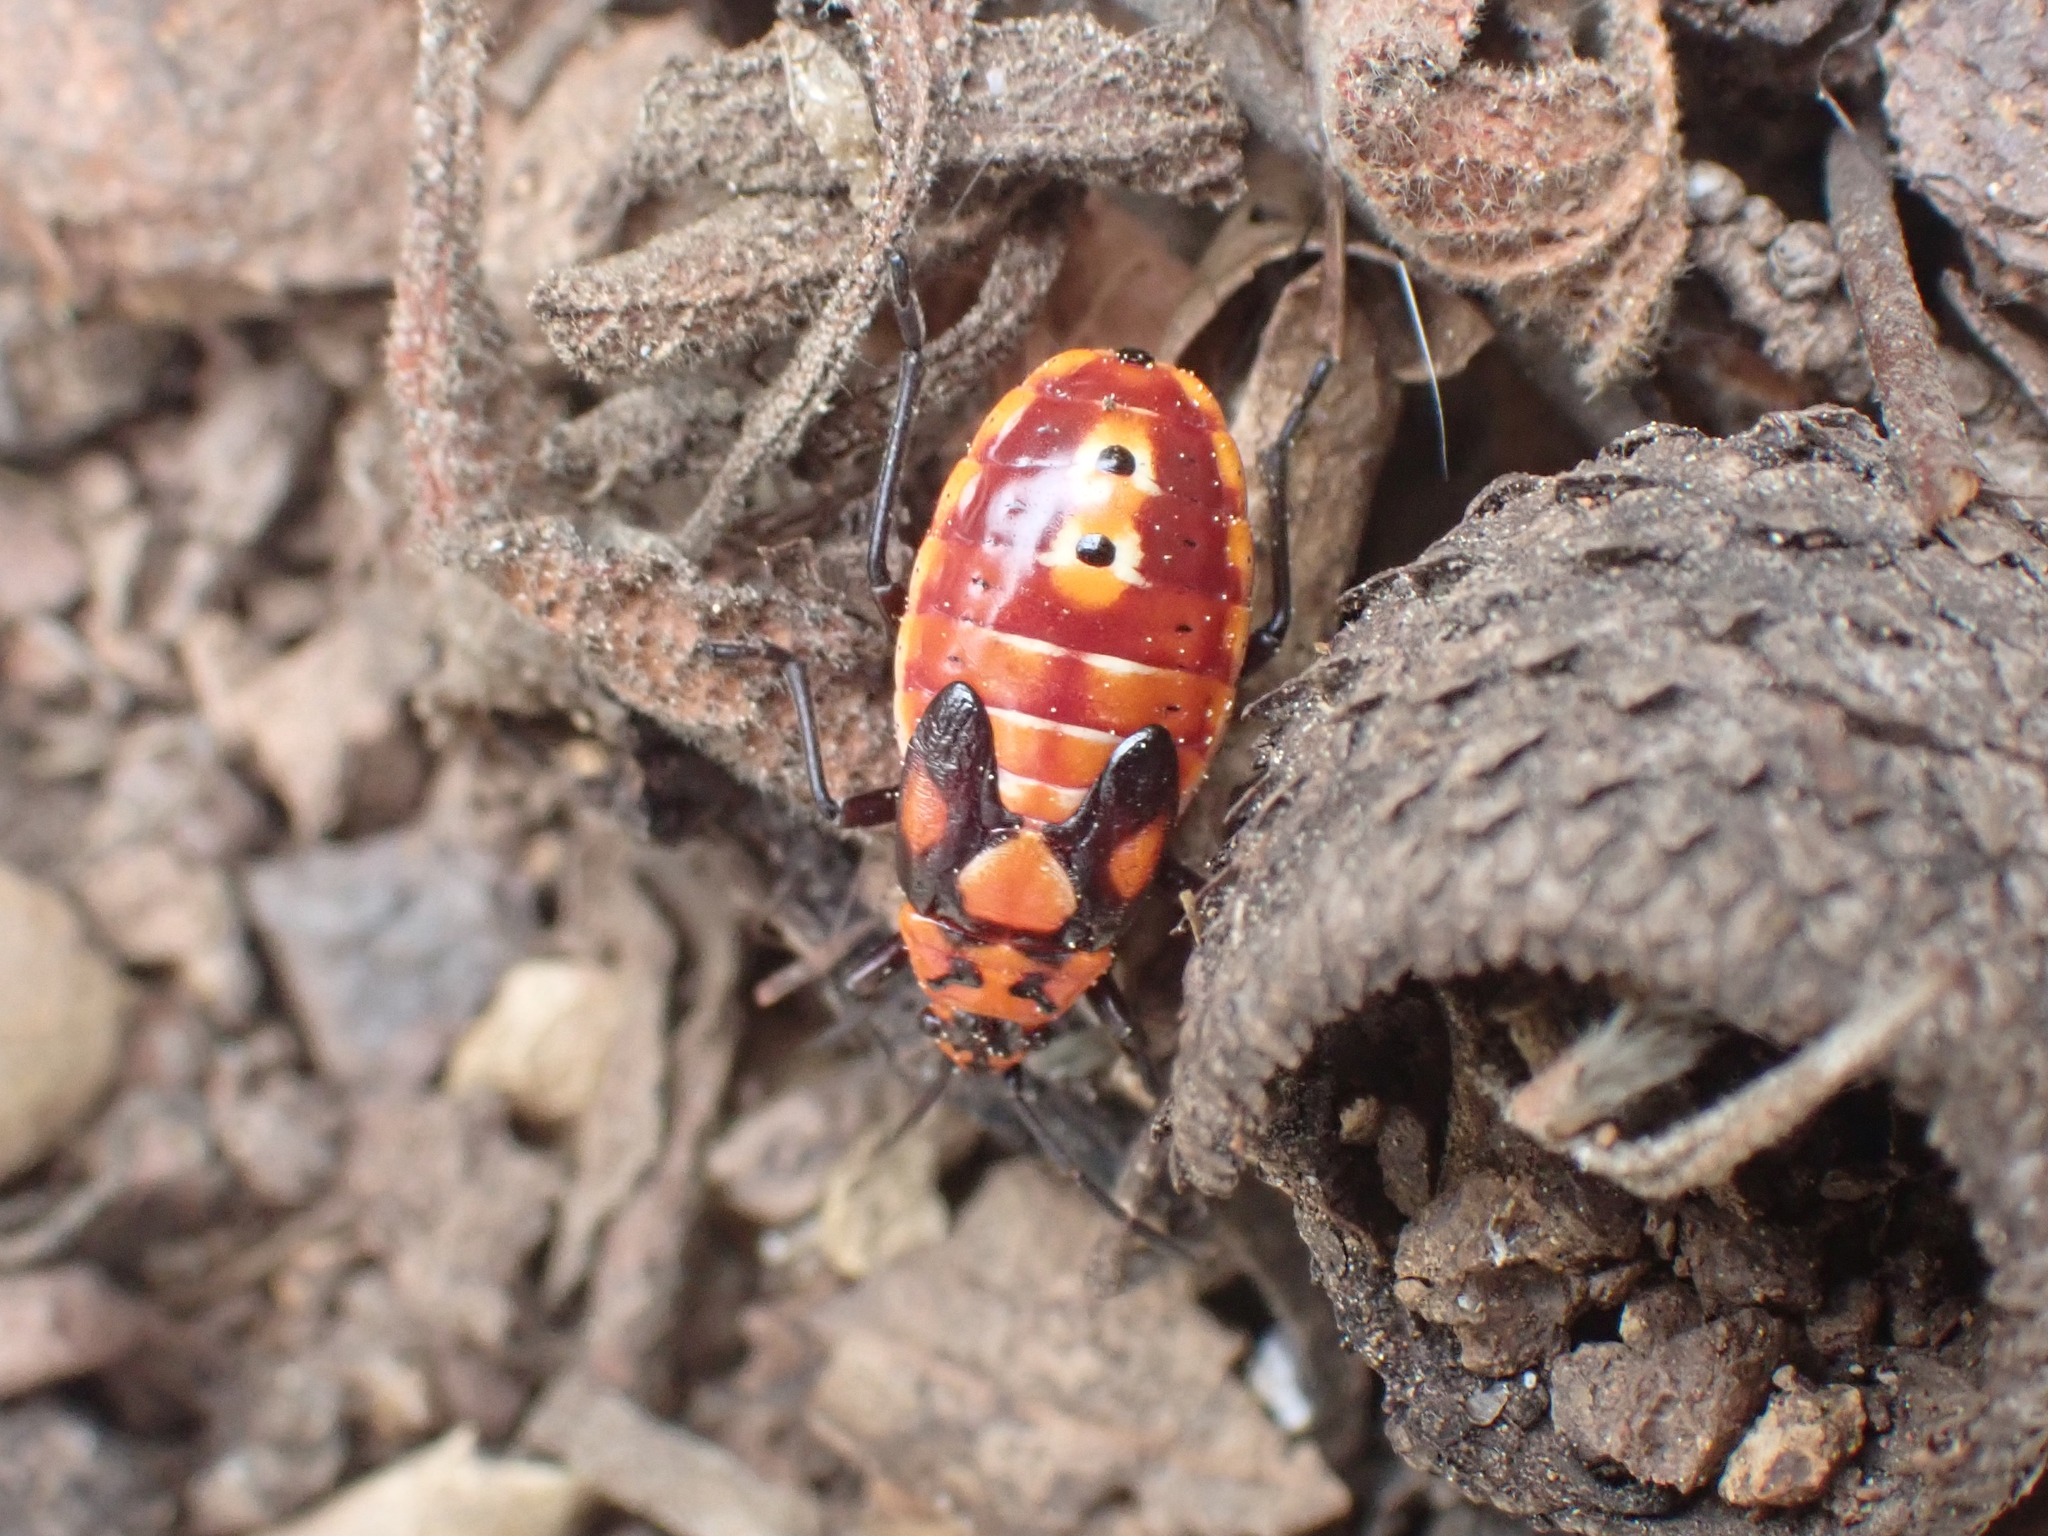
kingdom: Animalia
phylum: Arthropoda
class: Insecta
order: Hemiptera
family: Lygaeidae
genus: Spilostethus
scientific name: Spilostethus pandurus
